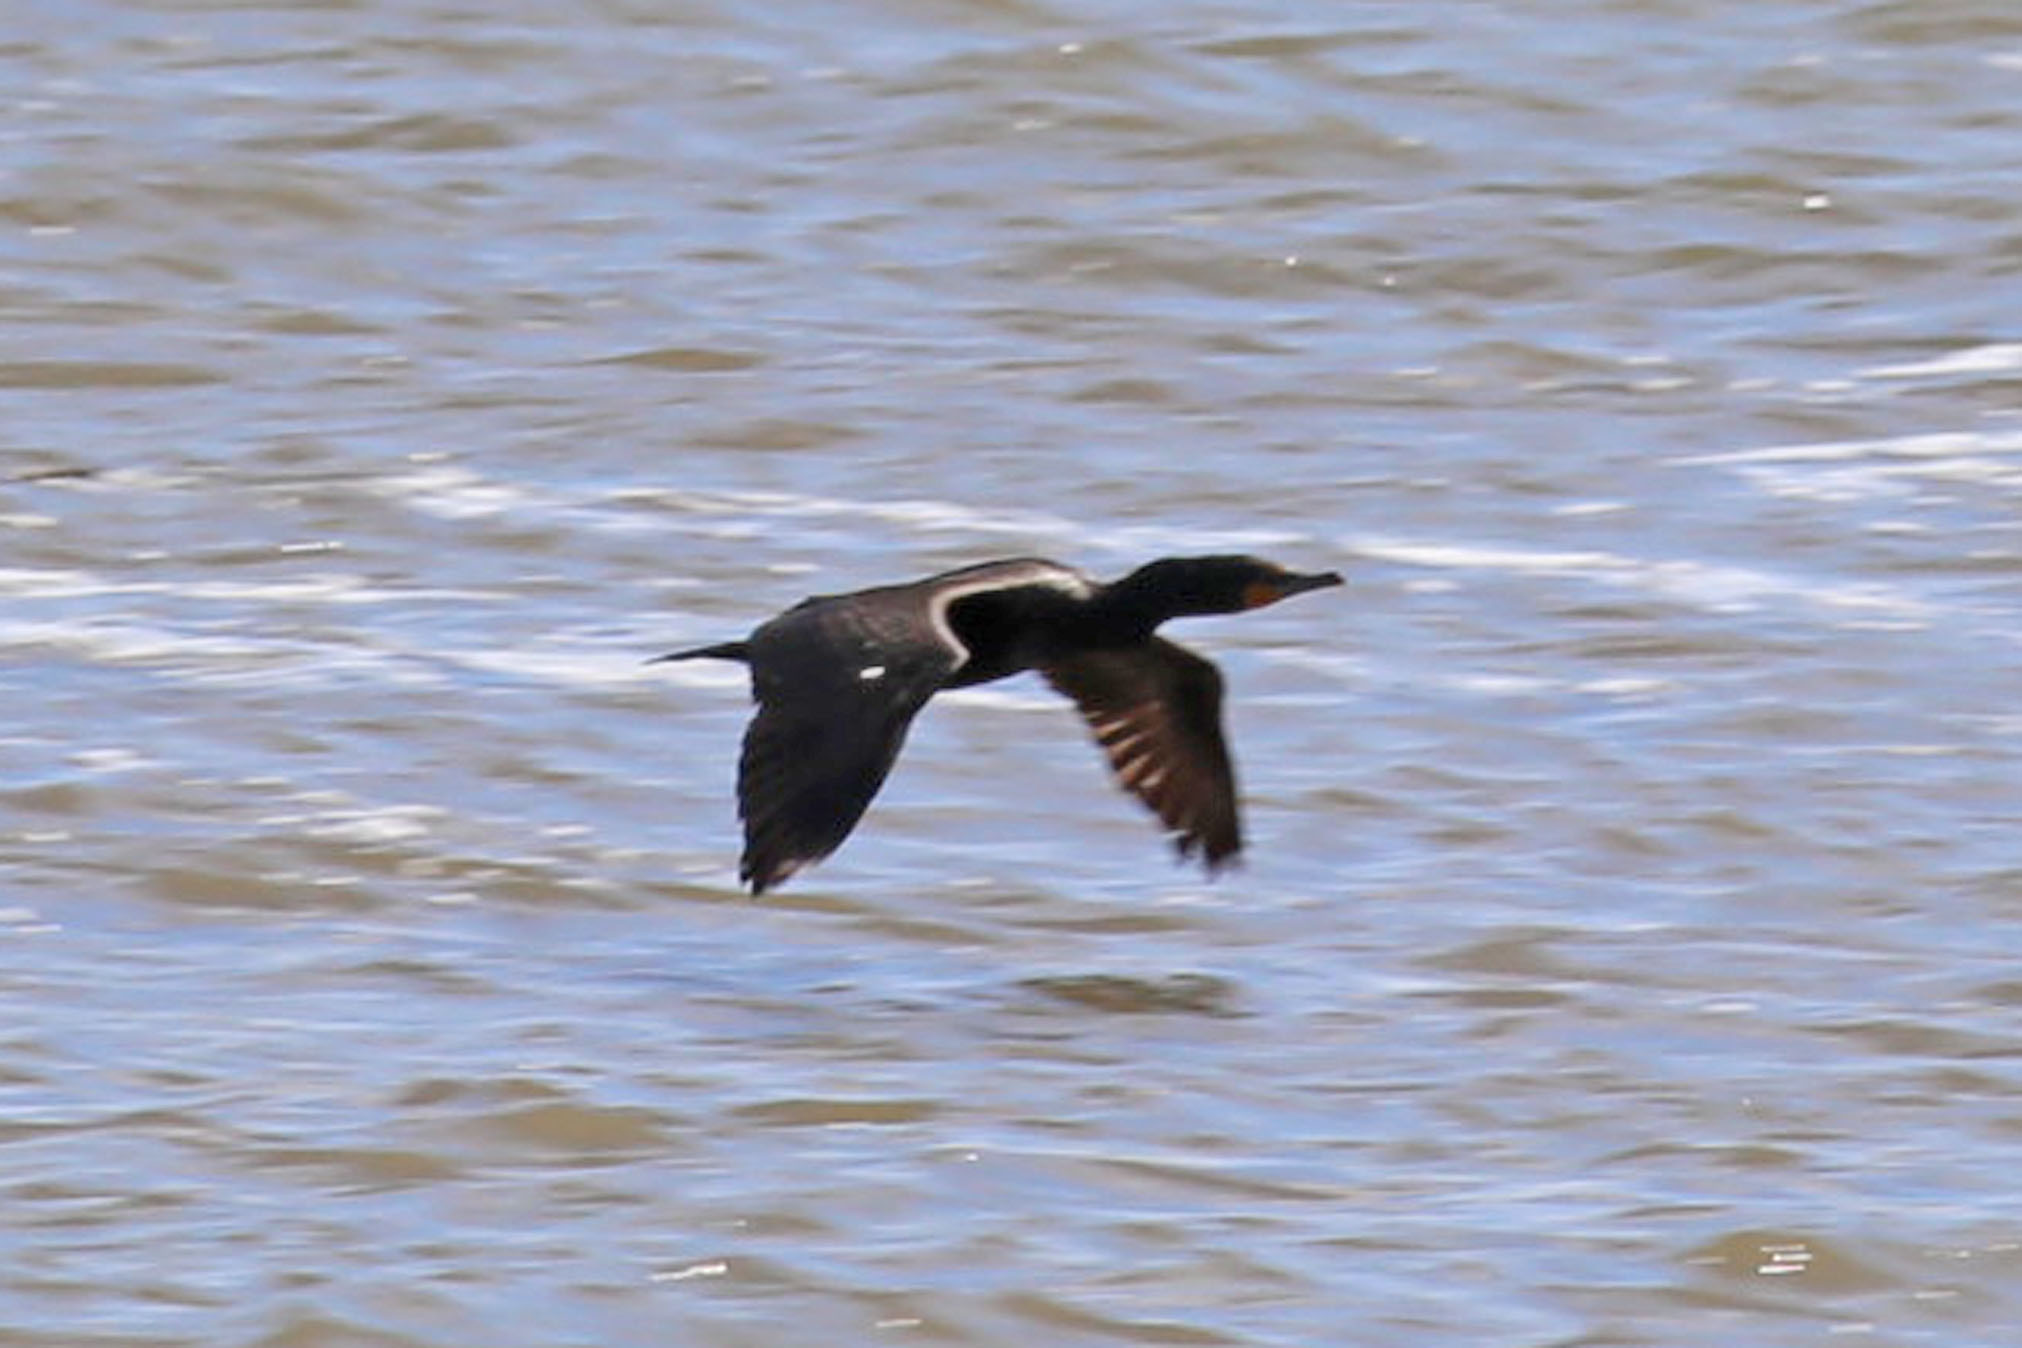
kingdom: Animalia
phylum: Chordata
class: Aves
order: Suliformes
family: Phalacrocoracidae
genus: Phalacrocorax
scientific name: Phalacrocorax auritus
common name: Double-crested cormorant
